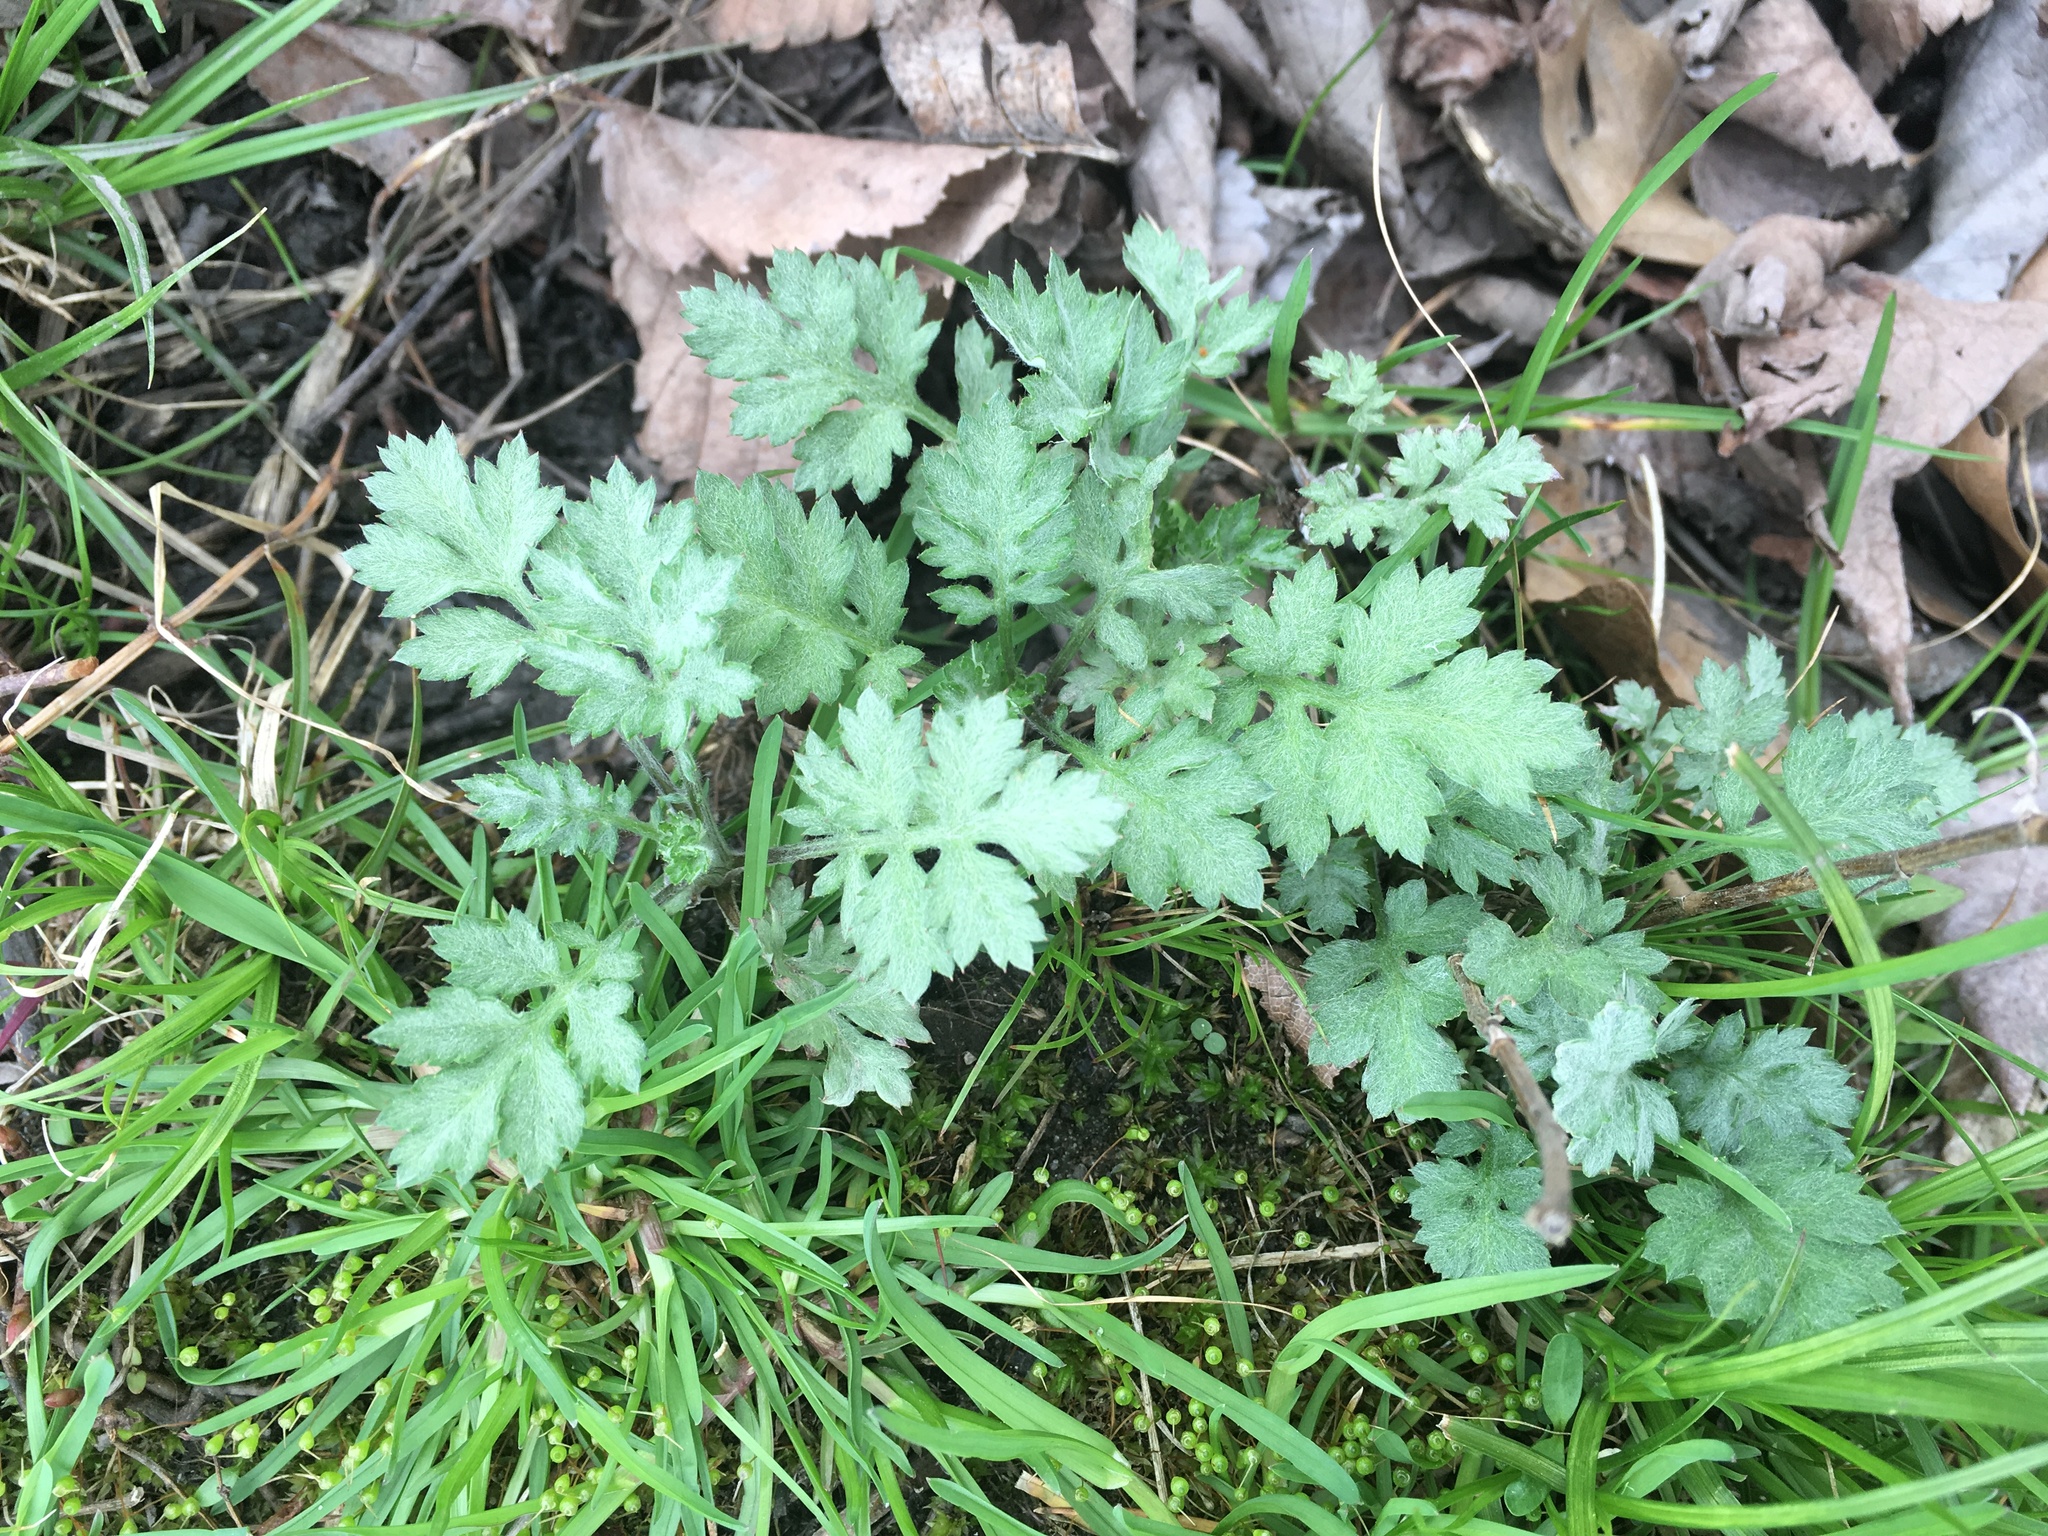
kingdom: Plantae
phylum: Tracheophyta
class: Magnoliopsida
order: Asterales
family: Asteraceae
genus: Artemisia
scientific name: Artemisia vulgaris
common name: Mugwort
